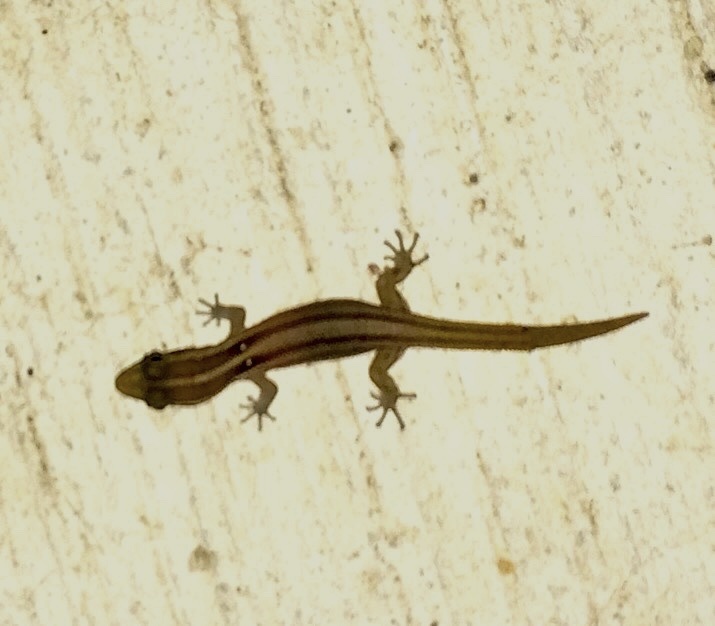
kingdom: Animalia
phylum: Chordata
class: Squamata
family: Sphaerodactylidae
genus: Sphaerodactylus
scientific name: Sphaerodactylus roosevelti
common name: Roosevelt's beige sphaero
